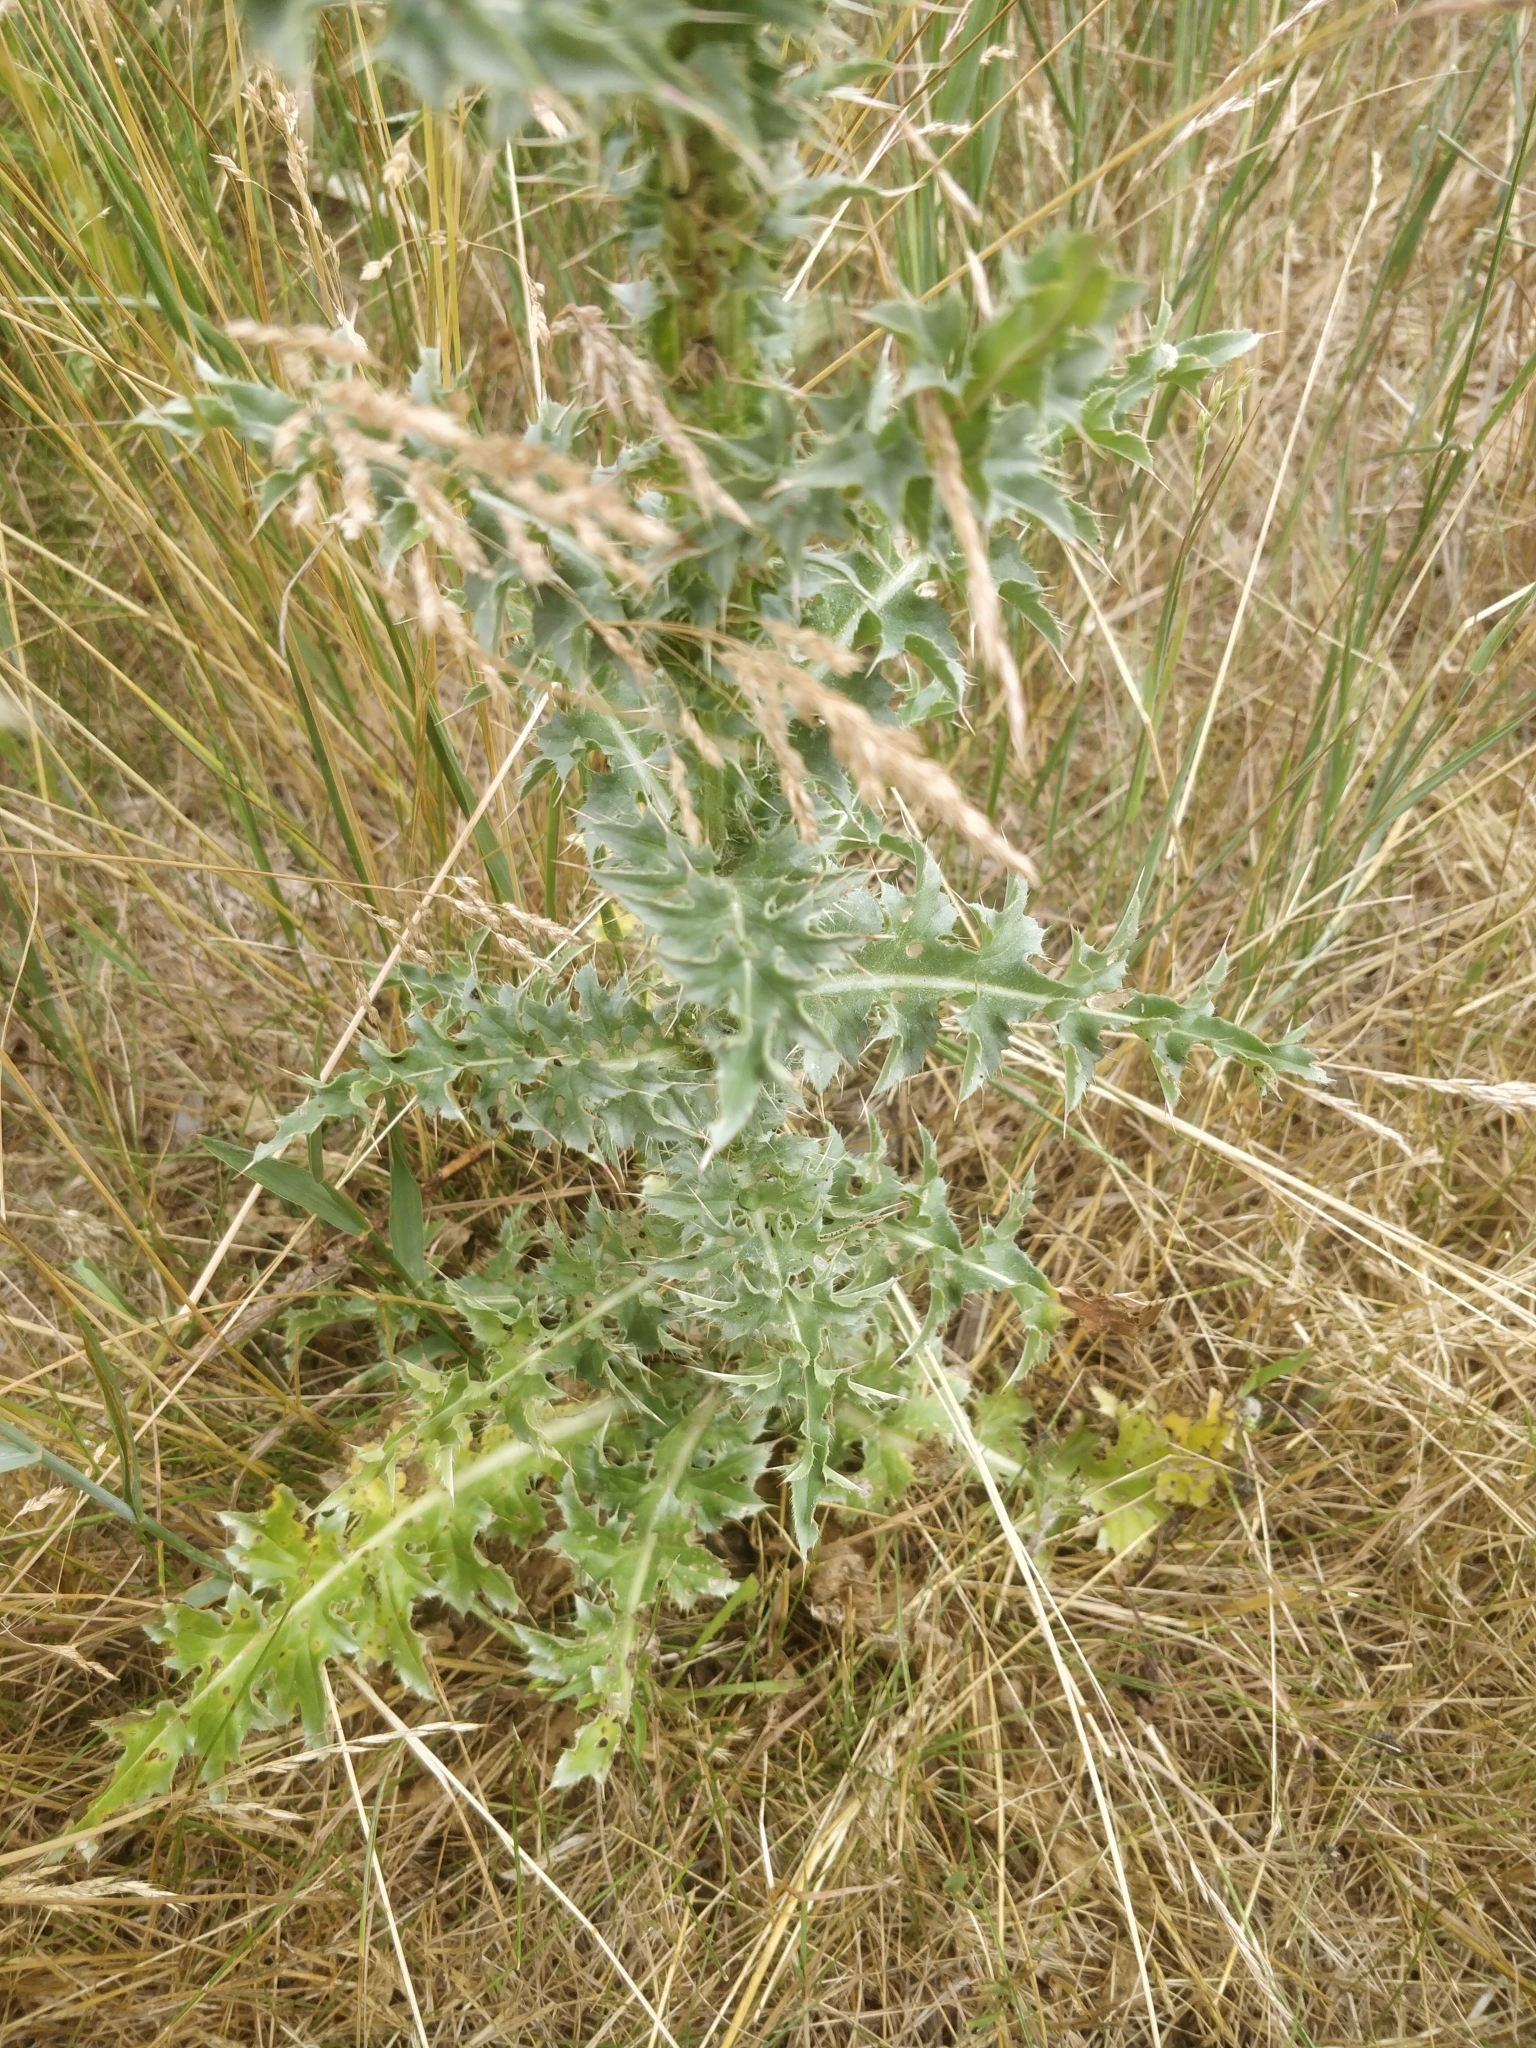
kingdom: Plantae
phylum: Tracheophyta
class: Magnoliopsida
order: Asterales
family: Asteraceae
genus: Carduus
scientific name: Carduus nutans
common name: Musk thistle
